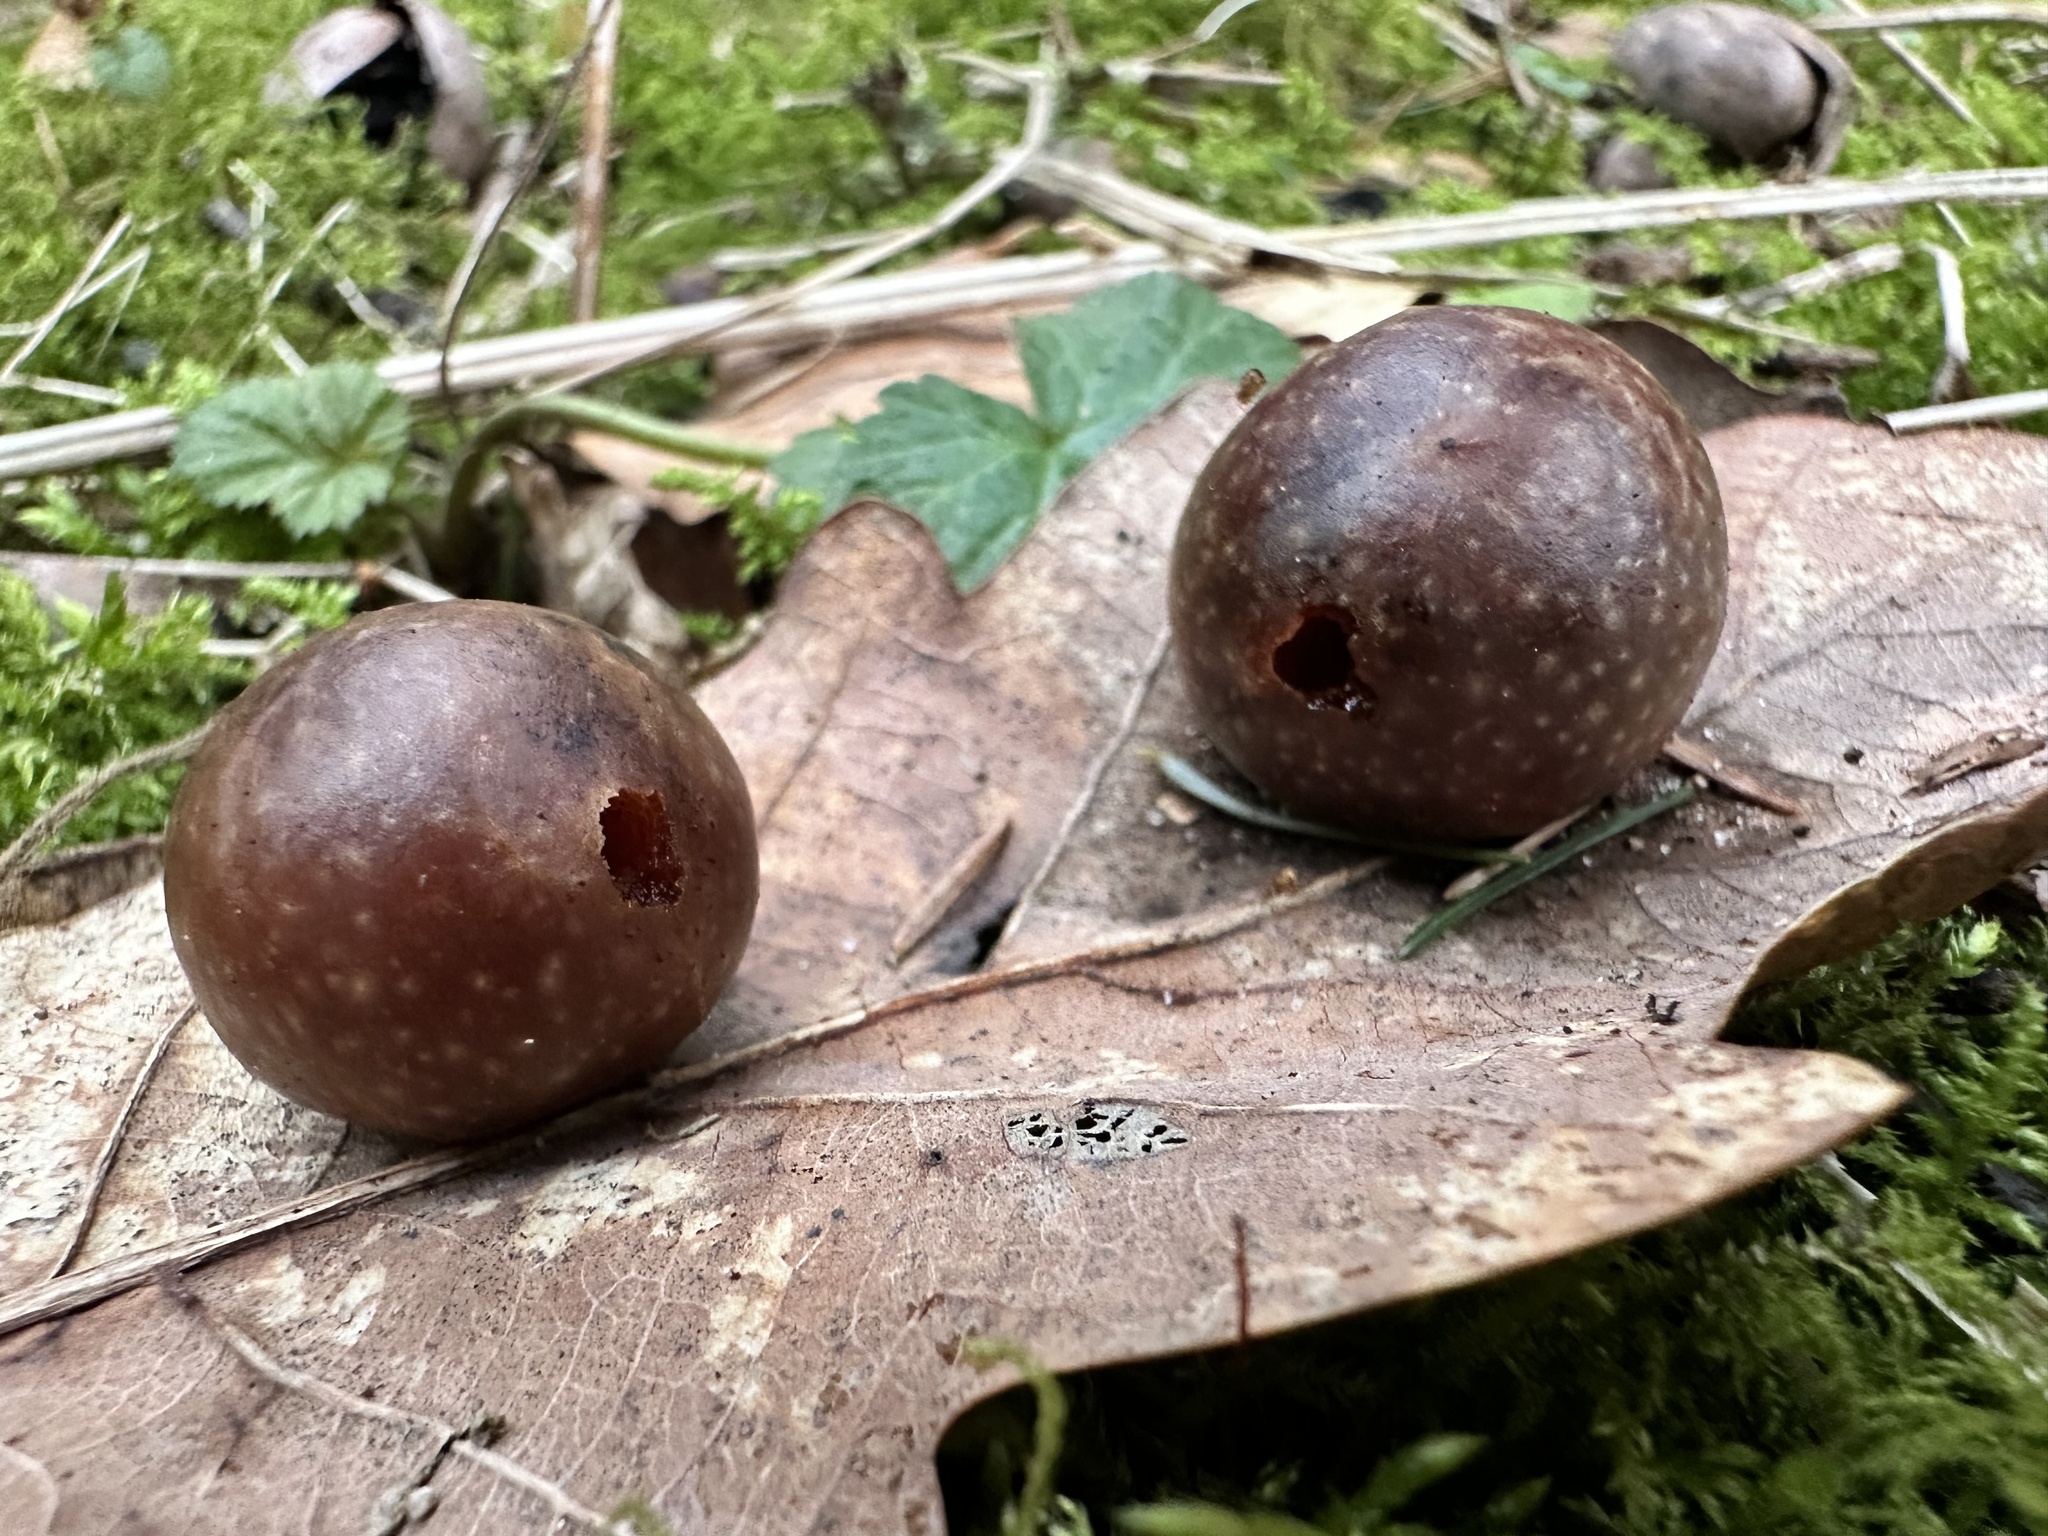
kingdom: Animalia
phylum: Arthropoda
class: Insecta
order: Hymenoptera
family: Cynipidae
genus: Cynips
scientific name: Cynips quercusfolii
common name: Cherry gall
